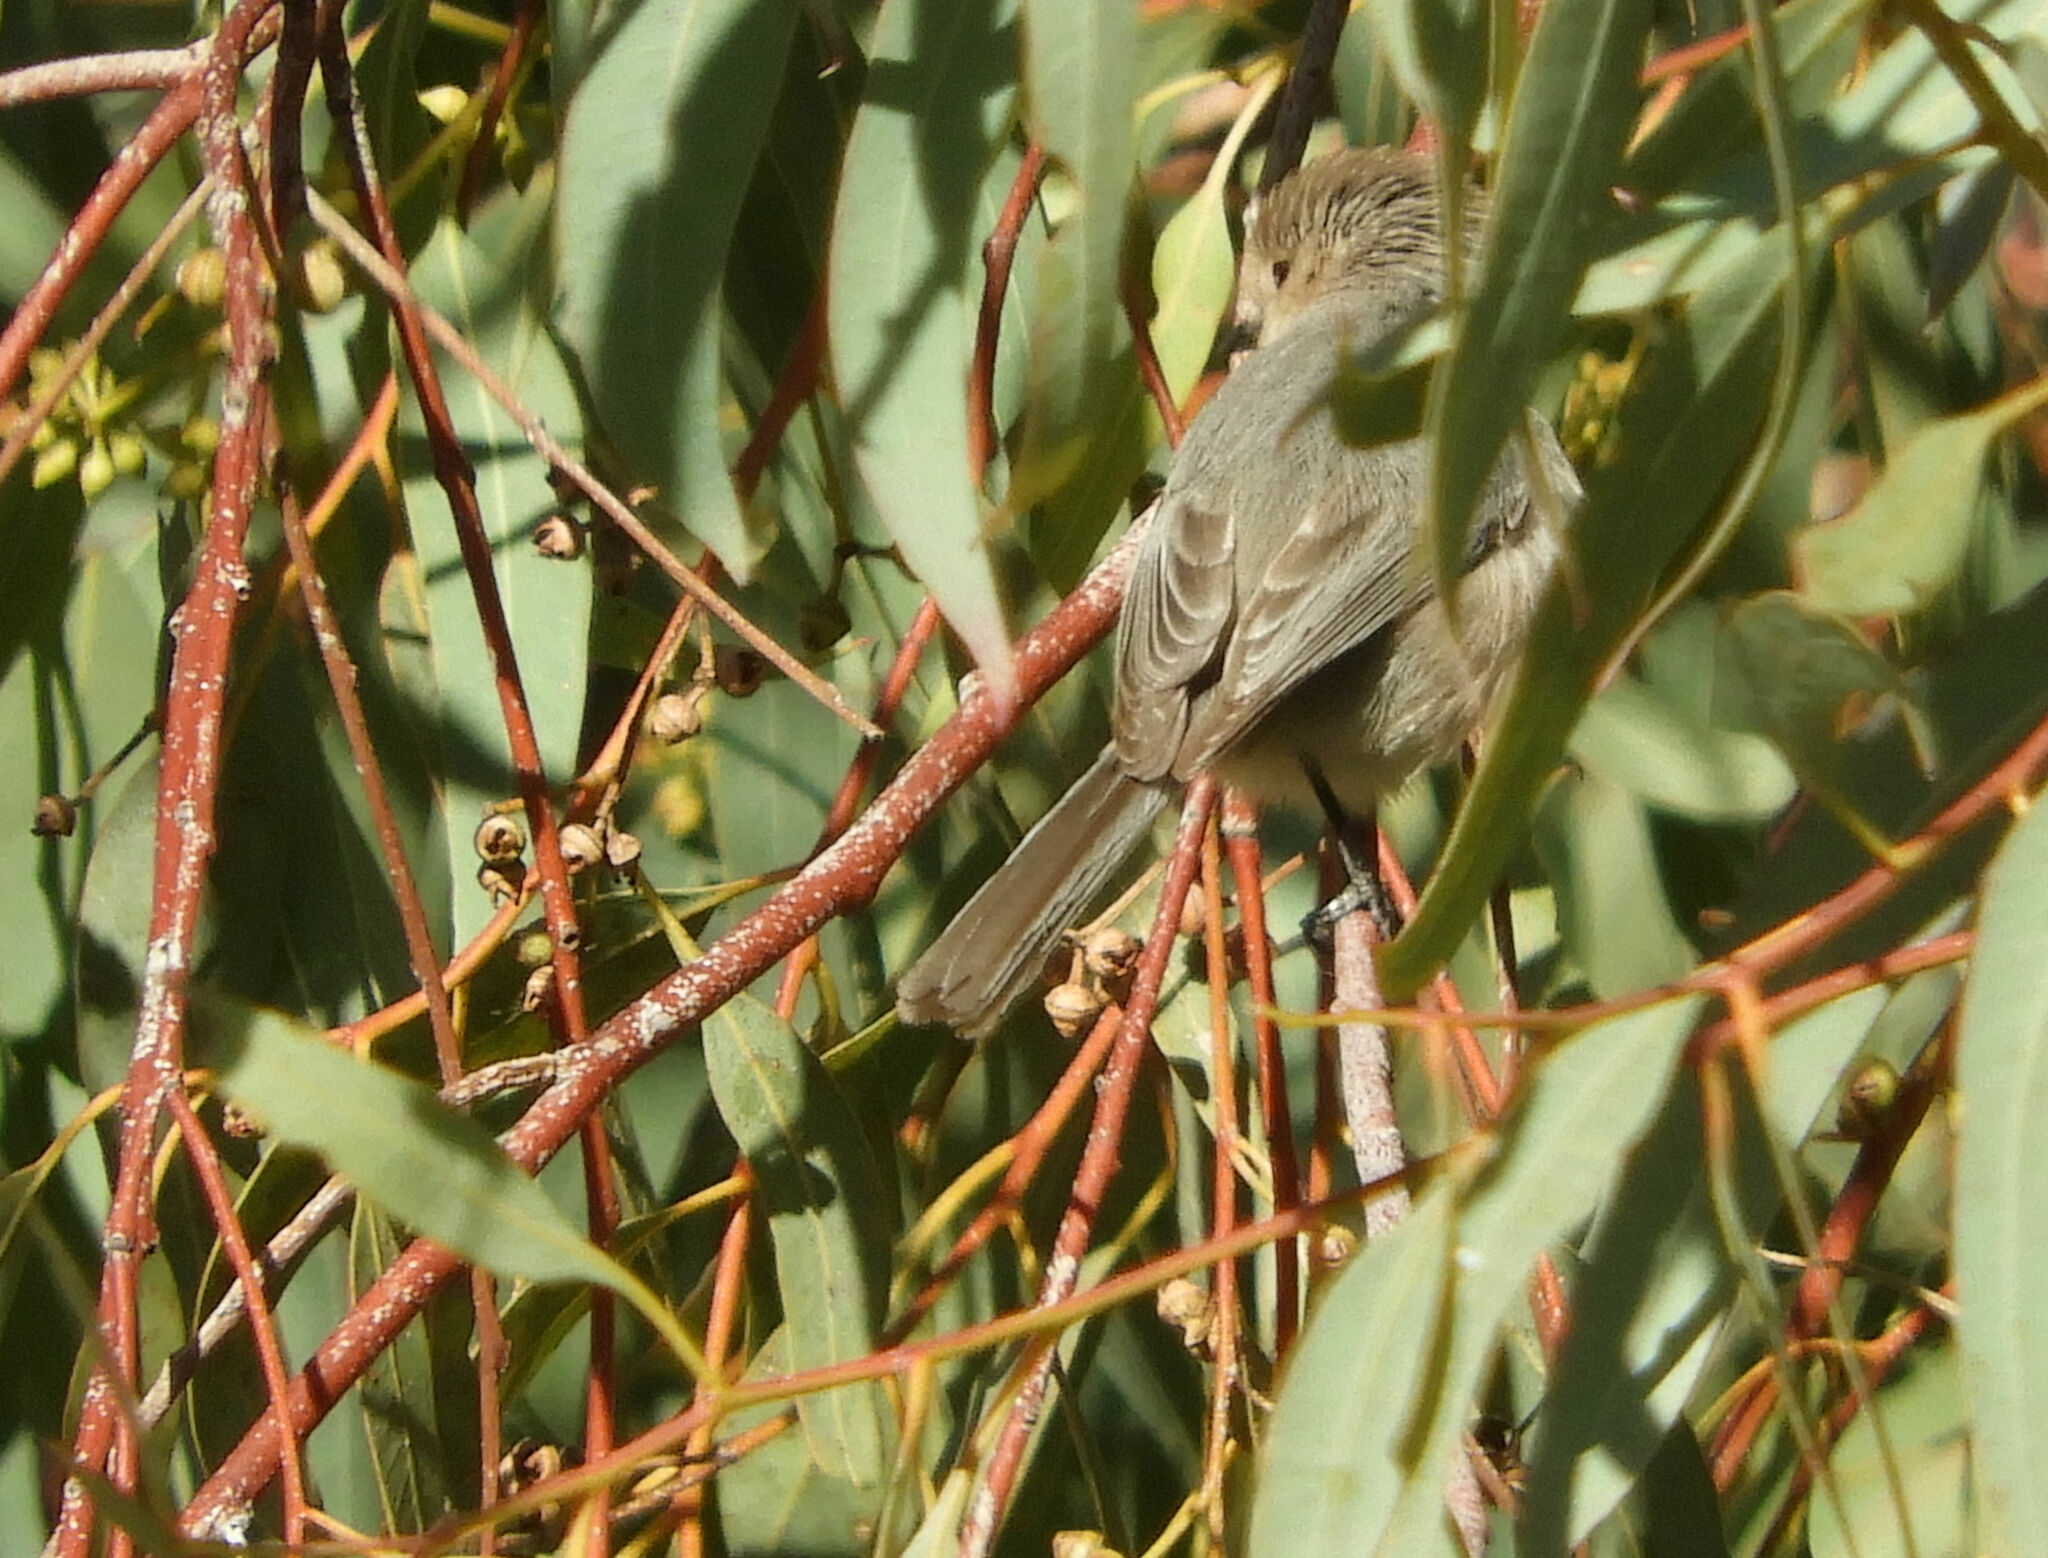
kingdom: Animalia
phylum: Chordata
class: Aves
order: Passeriformes
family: Aegithalidae
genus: Psaltriparus
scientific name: Psaltriparus minimus
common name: American bushtit
